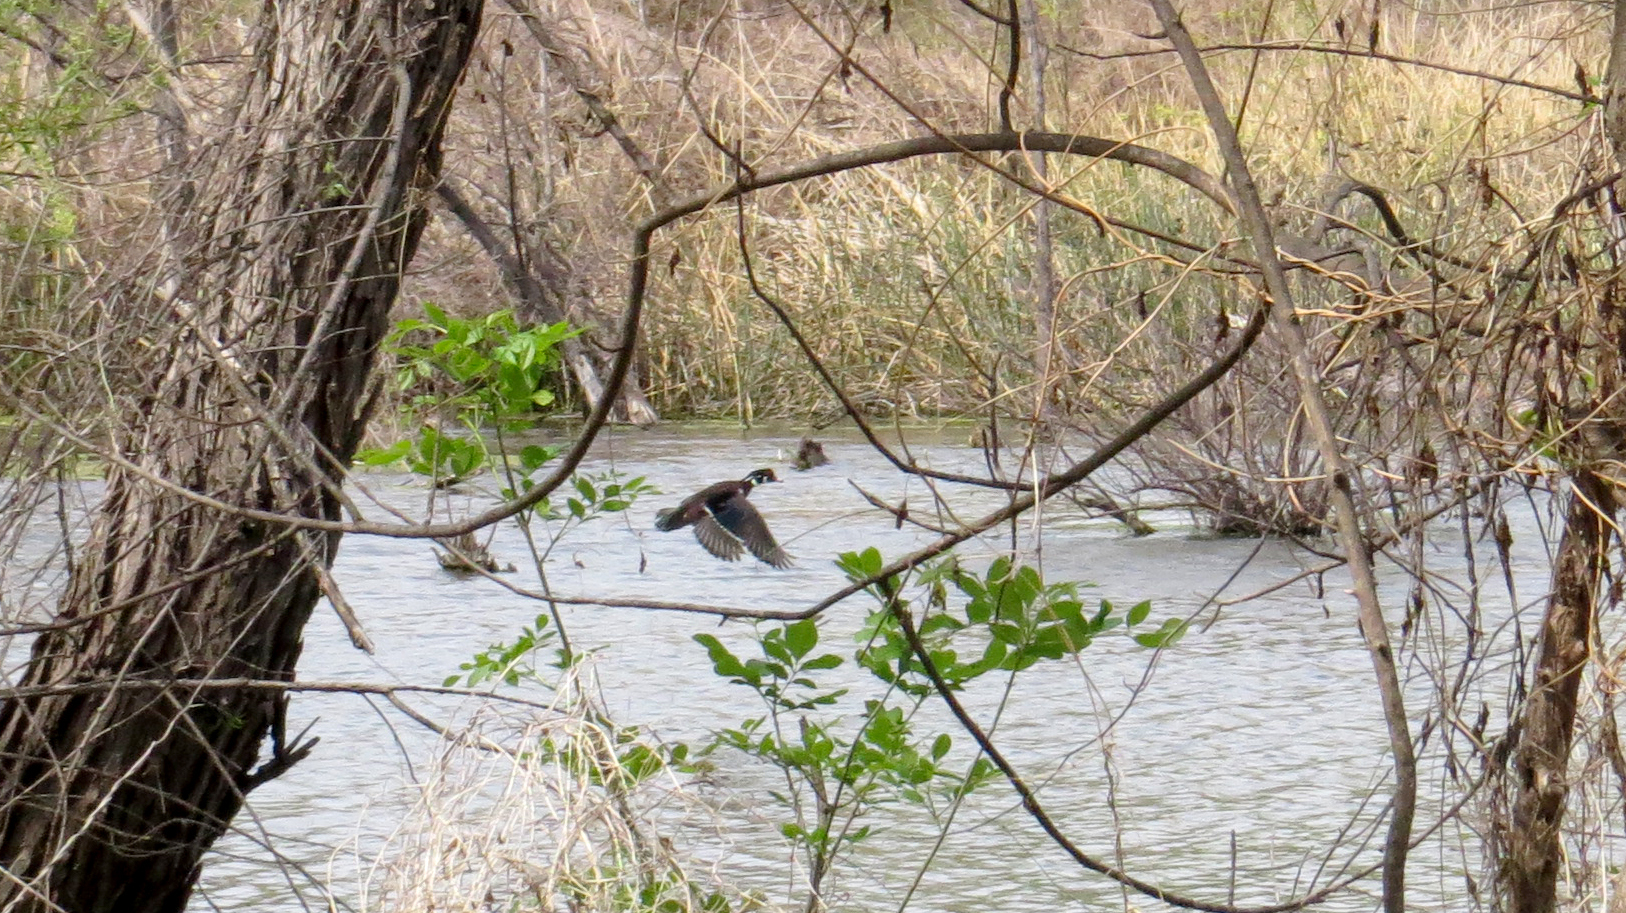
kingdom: Animalia
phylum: Chordata
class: Aves
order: Anseriformes
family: Anatidae
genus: Aix
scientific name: Aix sponsa
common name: Wood duck
